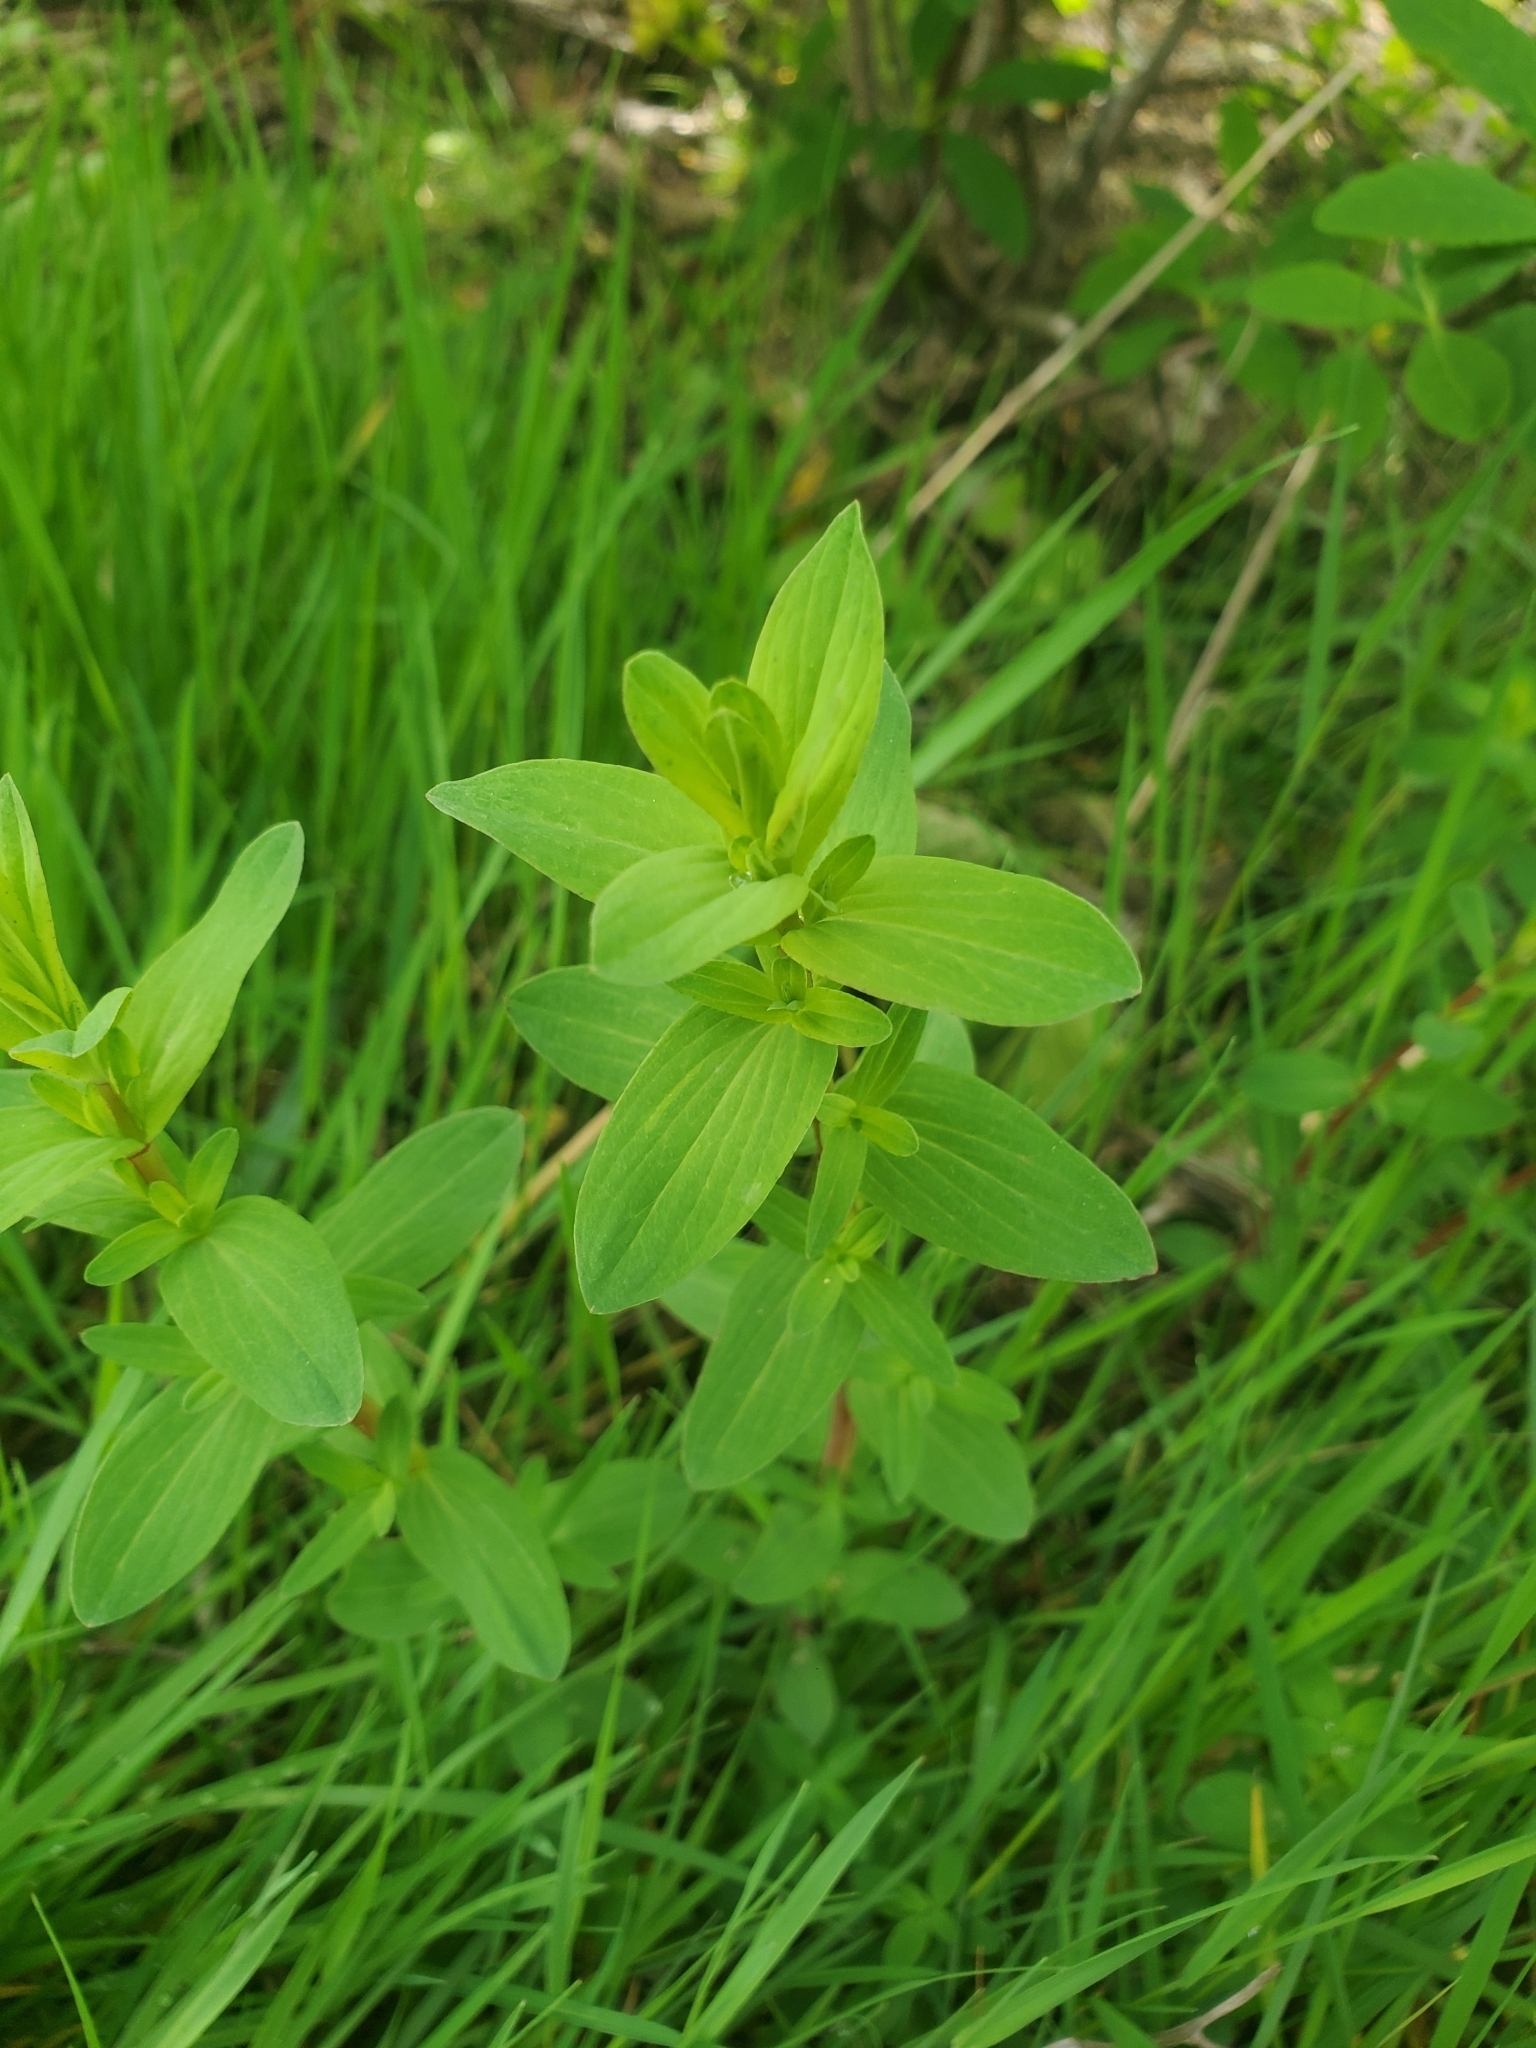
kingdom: Plantae
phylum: Tracheophyta
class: Magnoliopsida
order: Malpighiales
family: Hypericaceae
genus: Hypericum
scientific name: Hypericum perforatum
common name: Common st. johnswort
